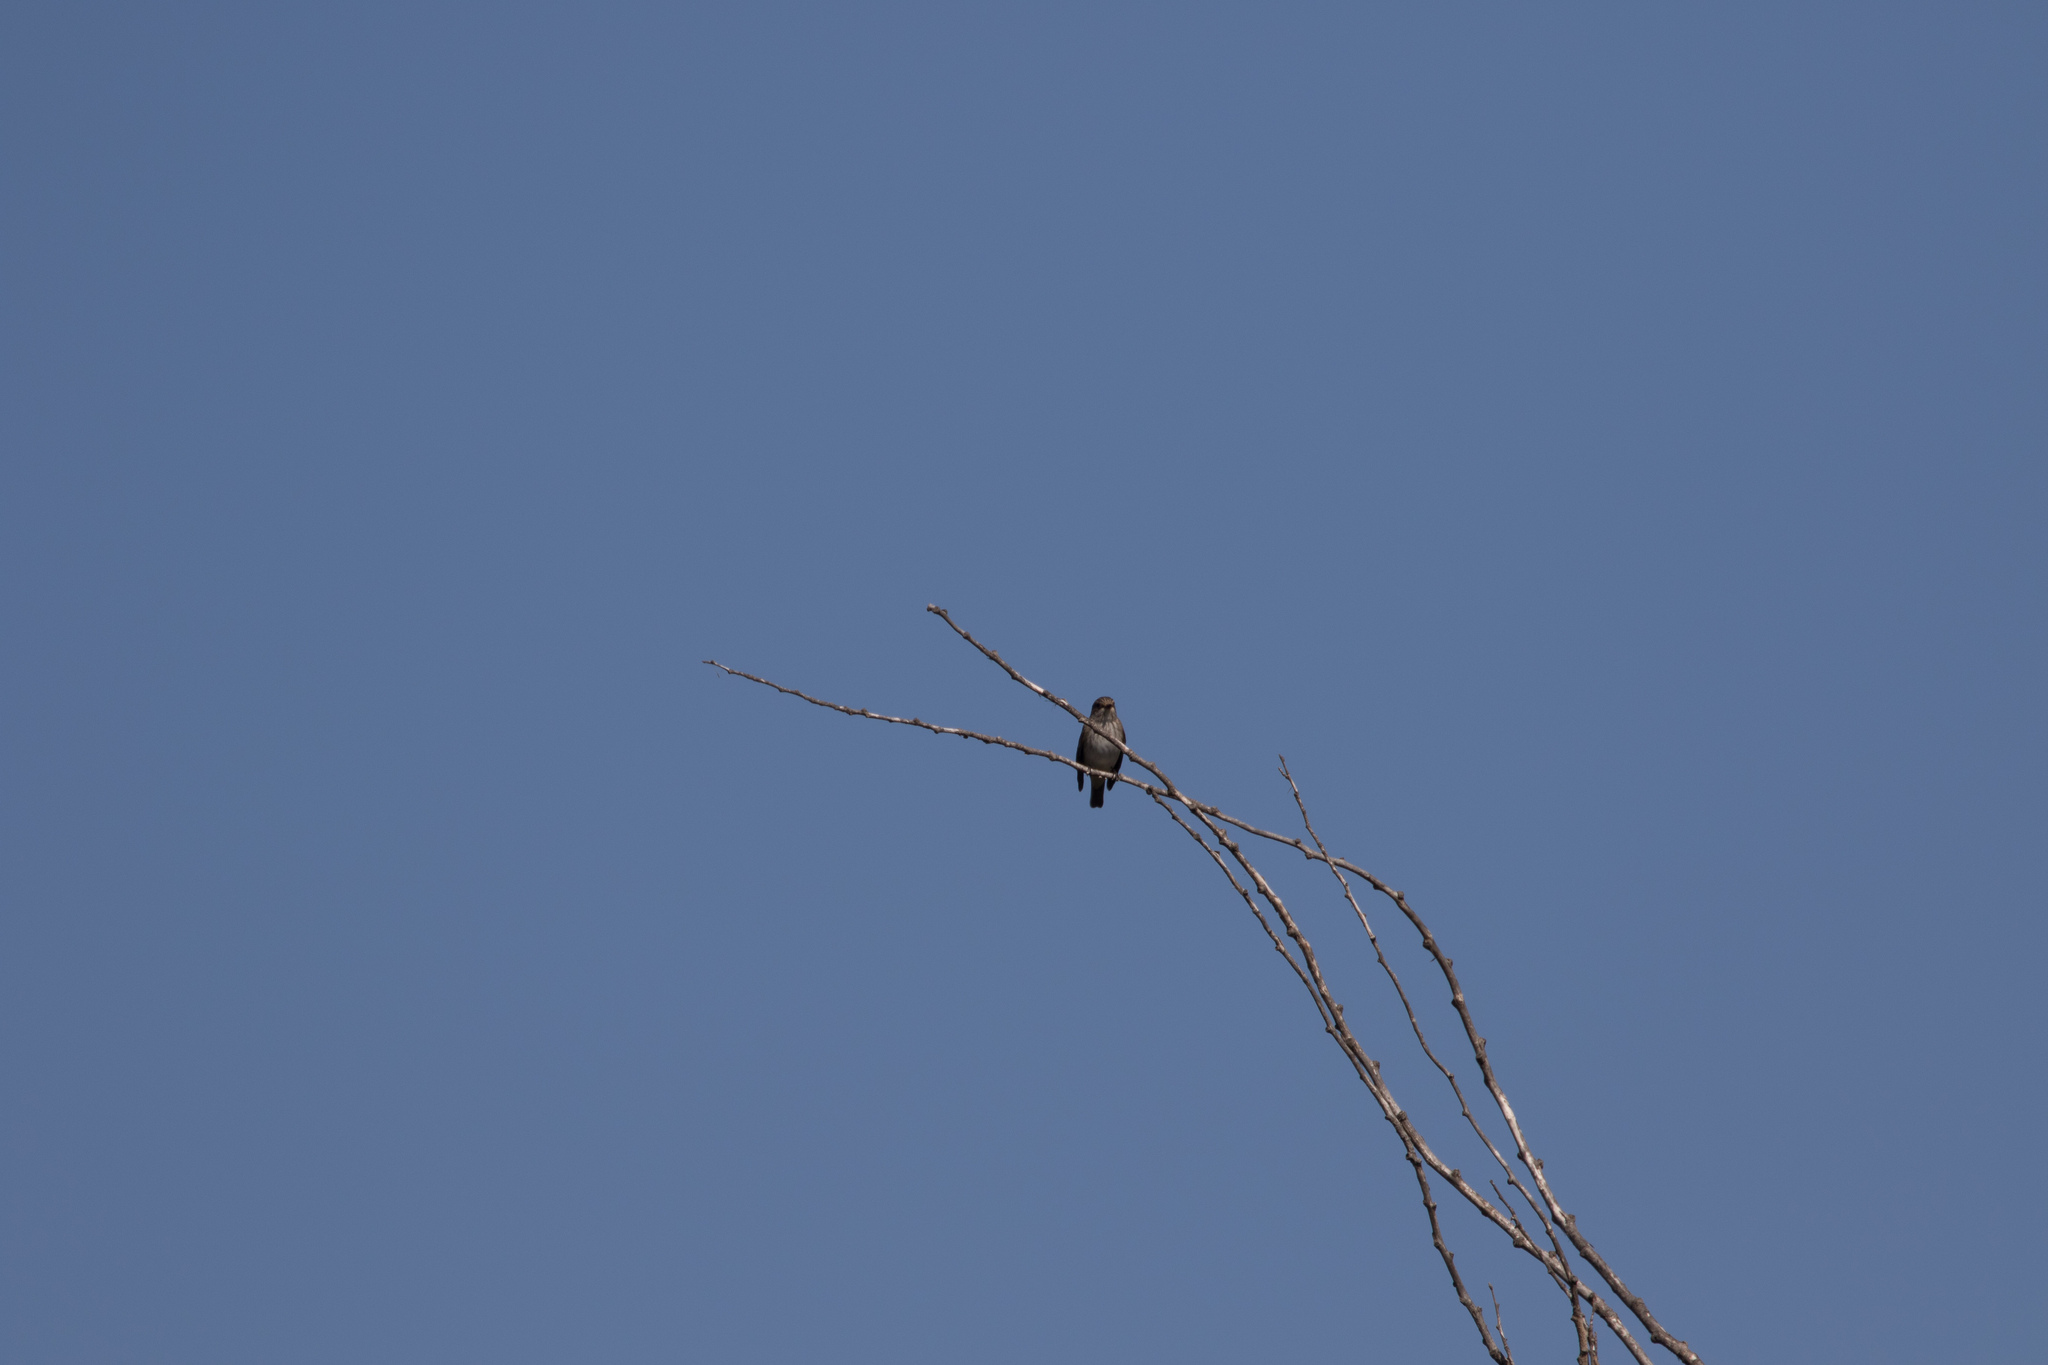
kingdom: Animalia
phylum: Chordata
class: Aves
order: Passeriformes
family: Muscicapidae
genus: Muscicapa
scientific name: Muscicapa striata
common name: Spotted flycatcher
